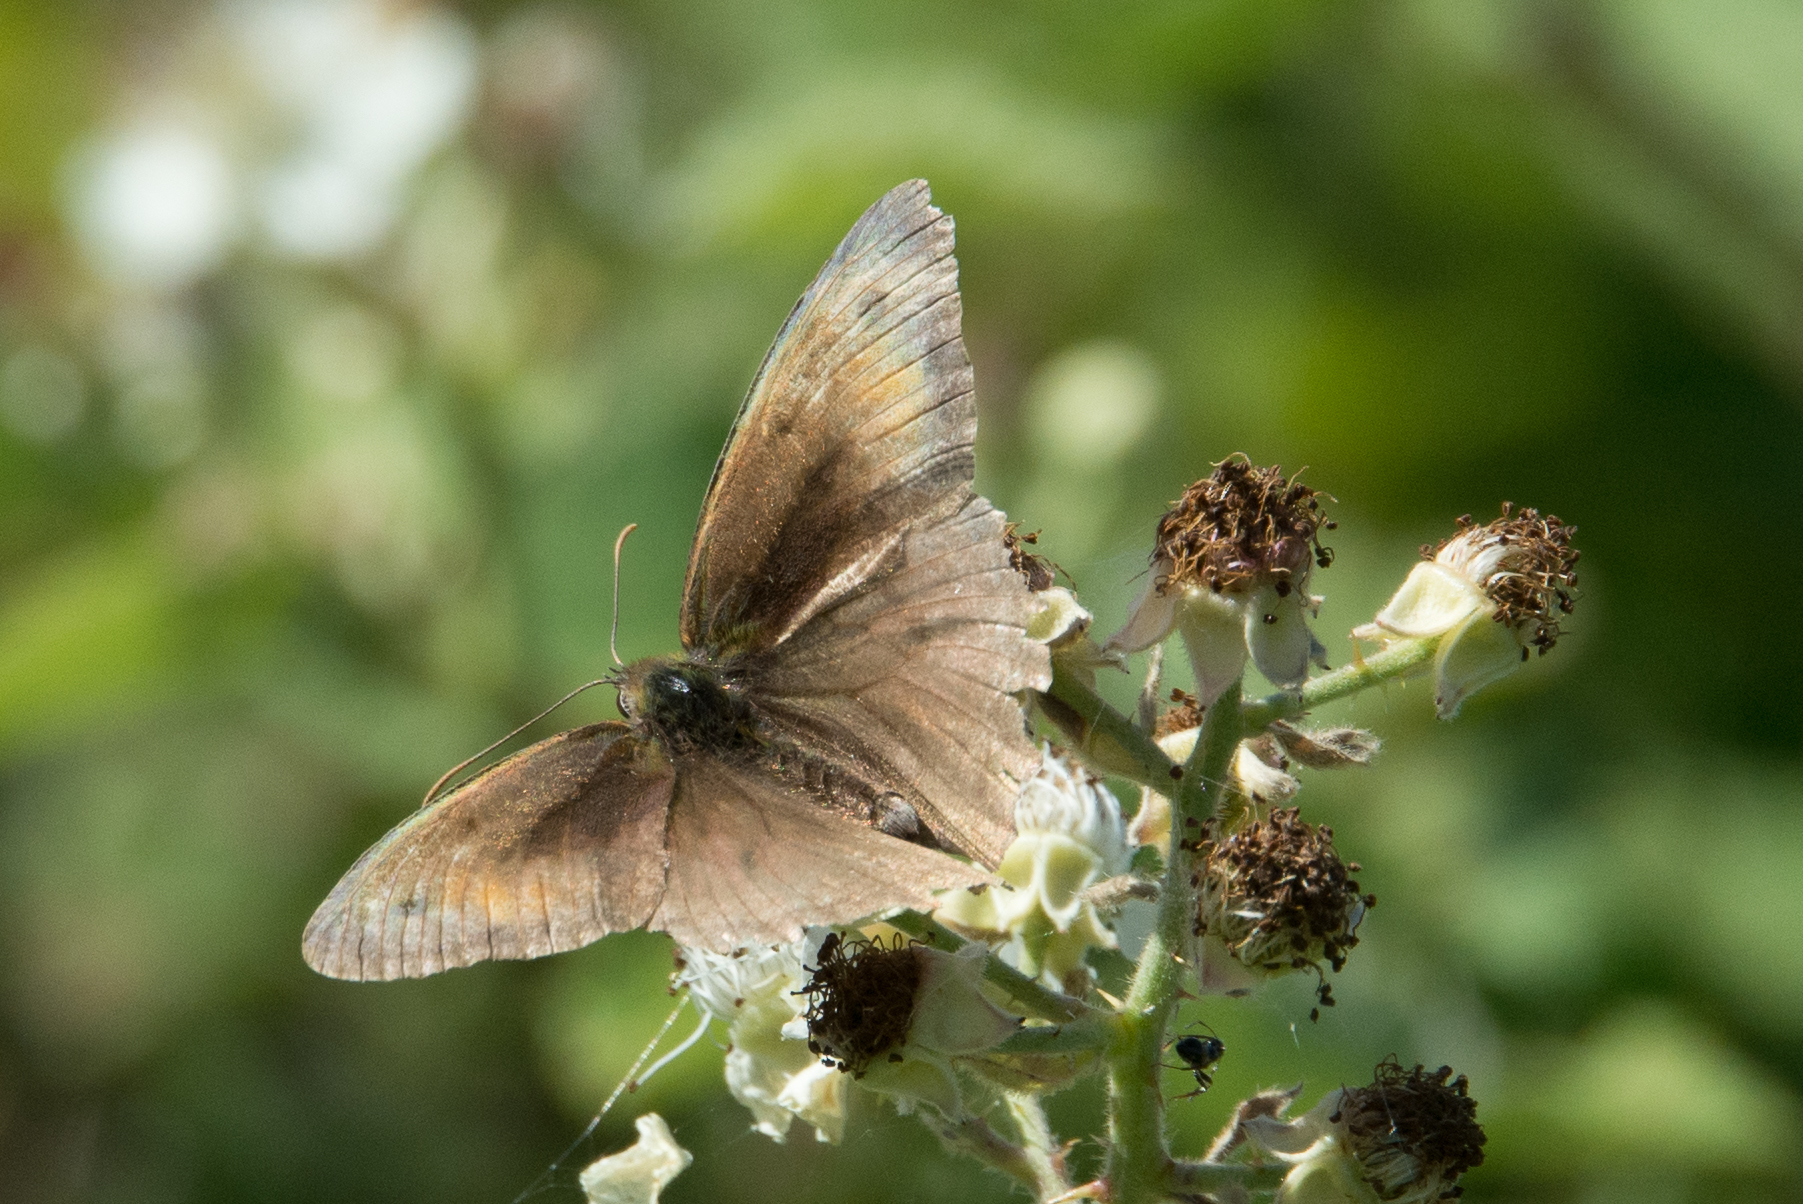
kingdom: Animalia
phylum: Arthropoda
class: Insecta
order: Lepidoptera
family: Nymphalidae
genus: Maniola
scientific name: Maniola jurtina
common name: Meadow brown
